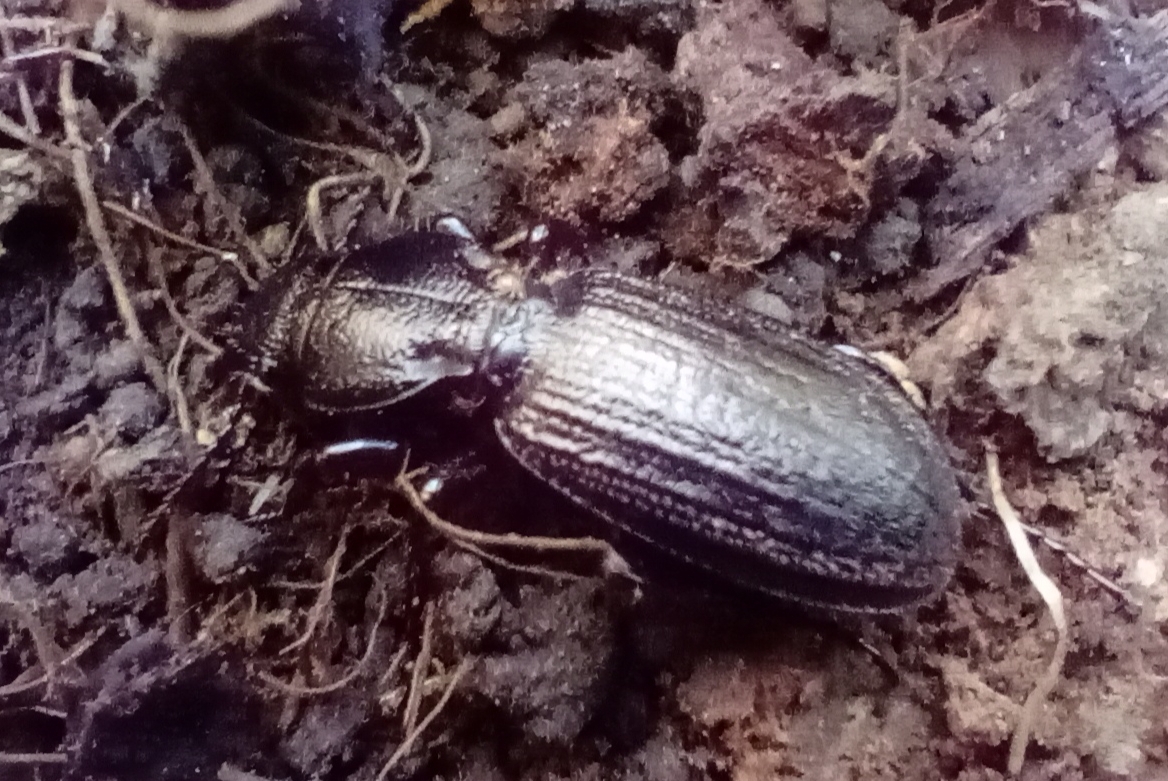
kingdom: Animalia
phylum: Arthropoda
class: Insecta
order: Coleoptera
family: Carabidae
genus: Mecodema
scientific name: Mecodema sculpturatum
